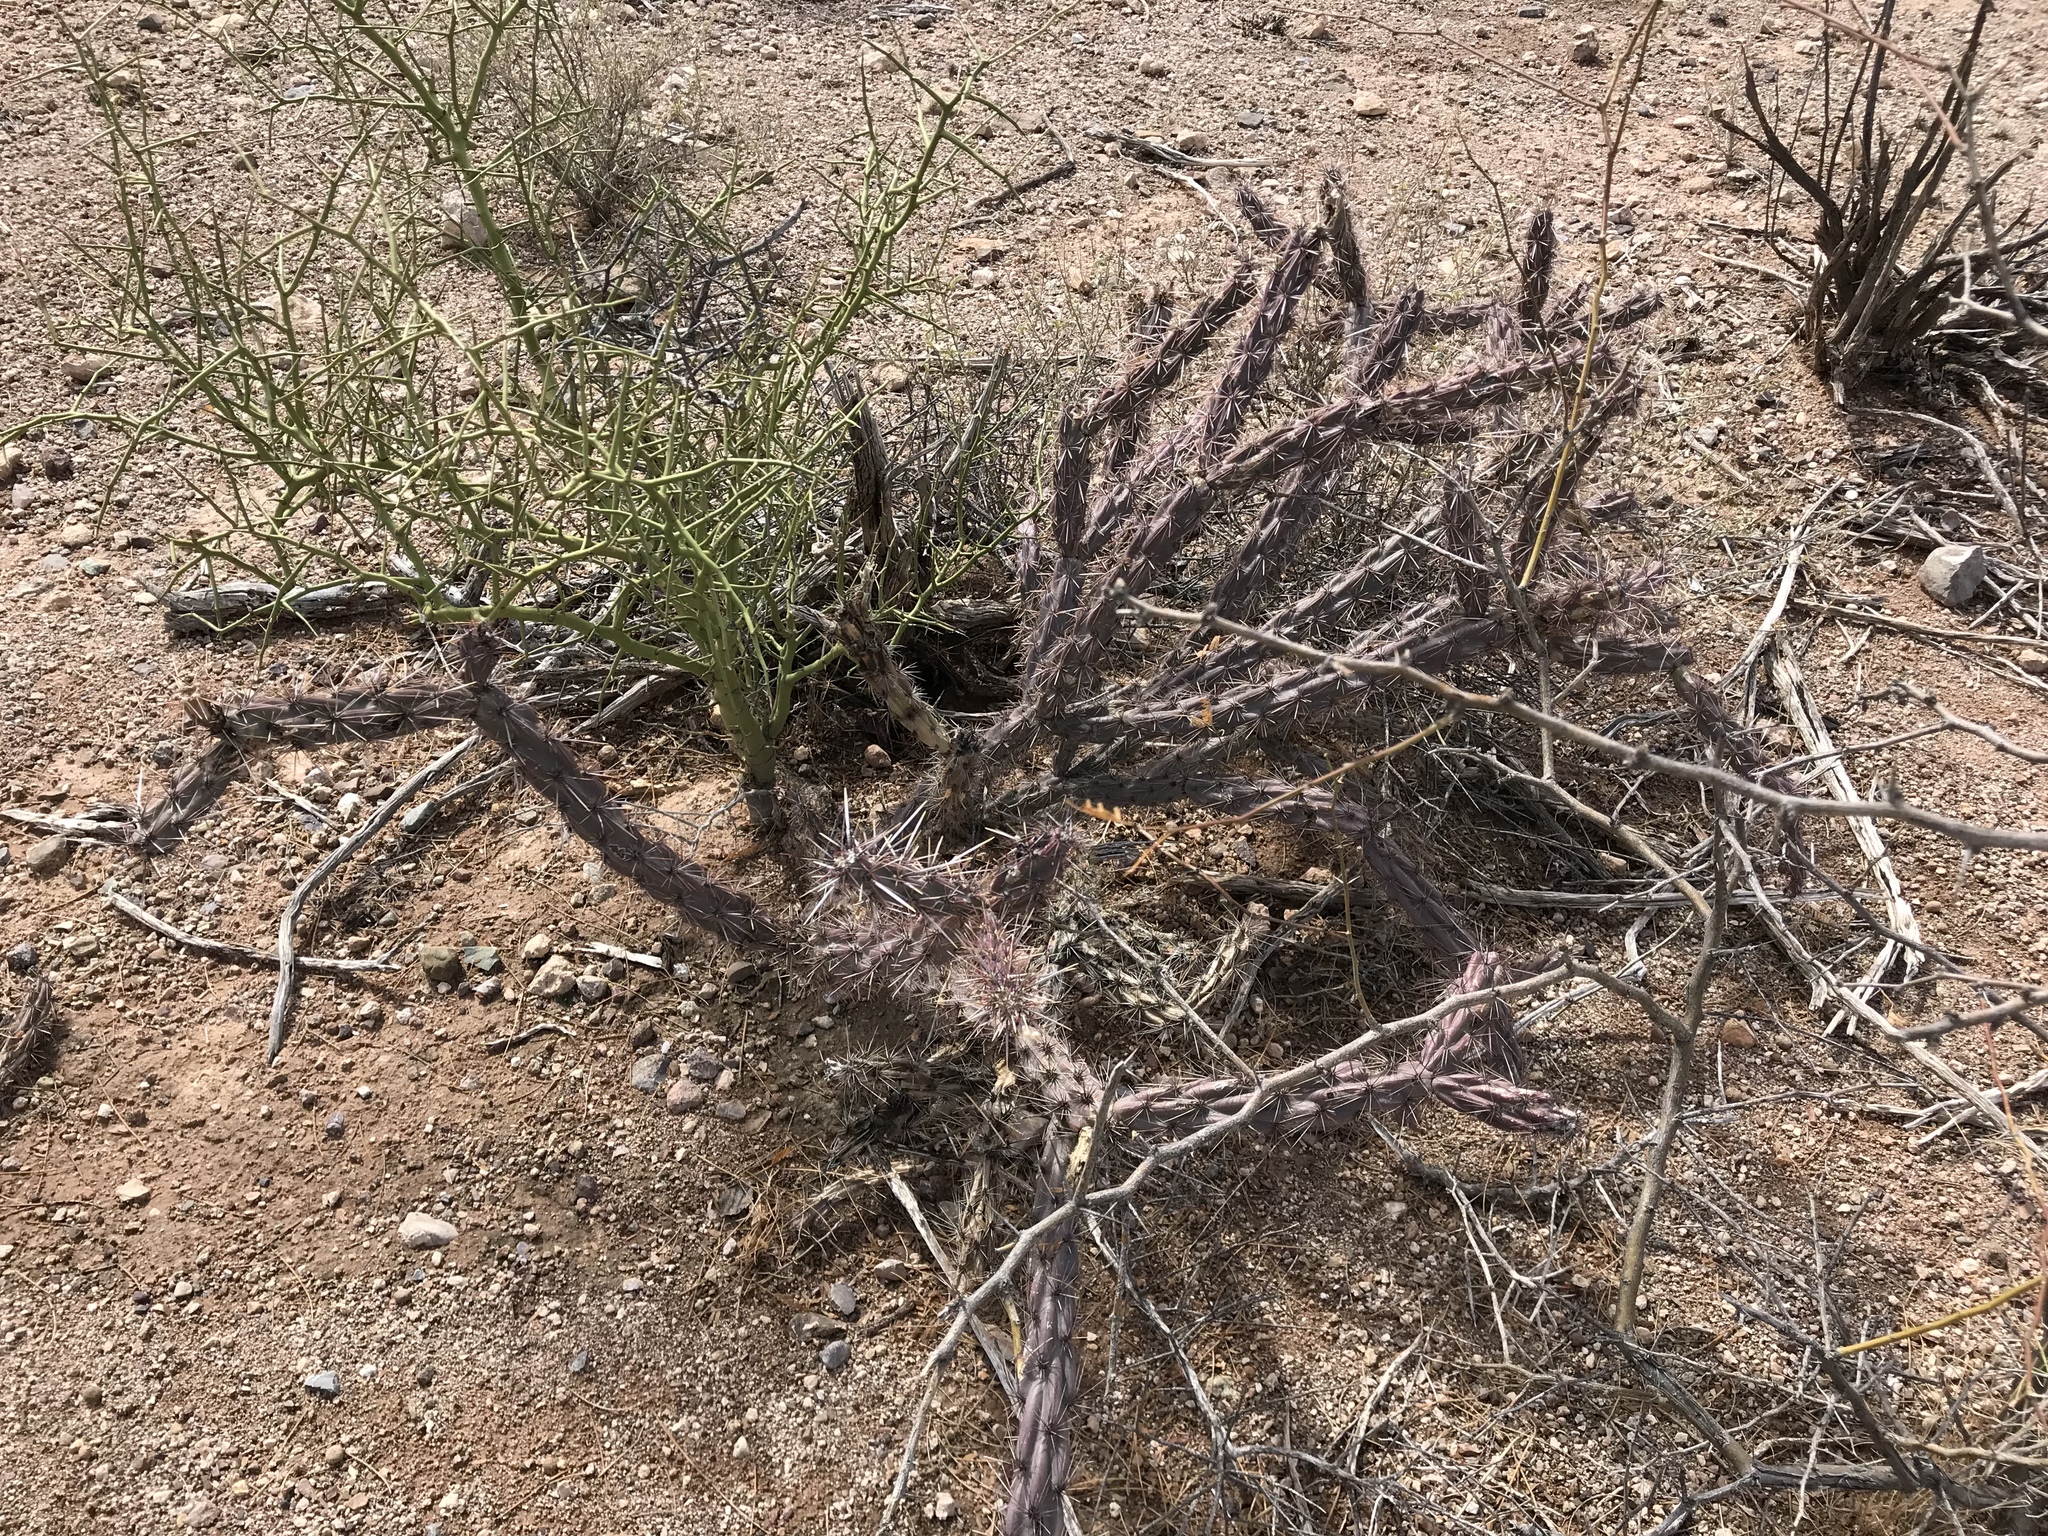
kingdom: Plantae
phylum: Tracheophyta
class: Magnoliopsida
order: Caryophyllales
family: Cactaceae
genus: Cylindropuntia
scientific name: Cylindropuntia thurberi
